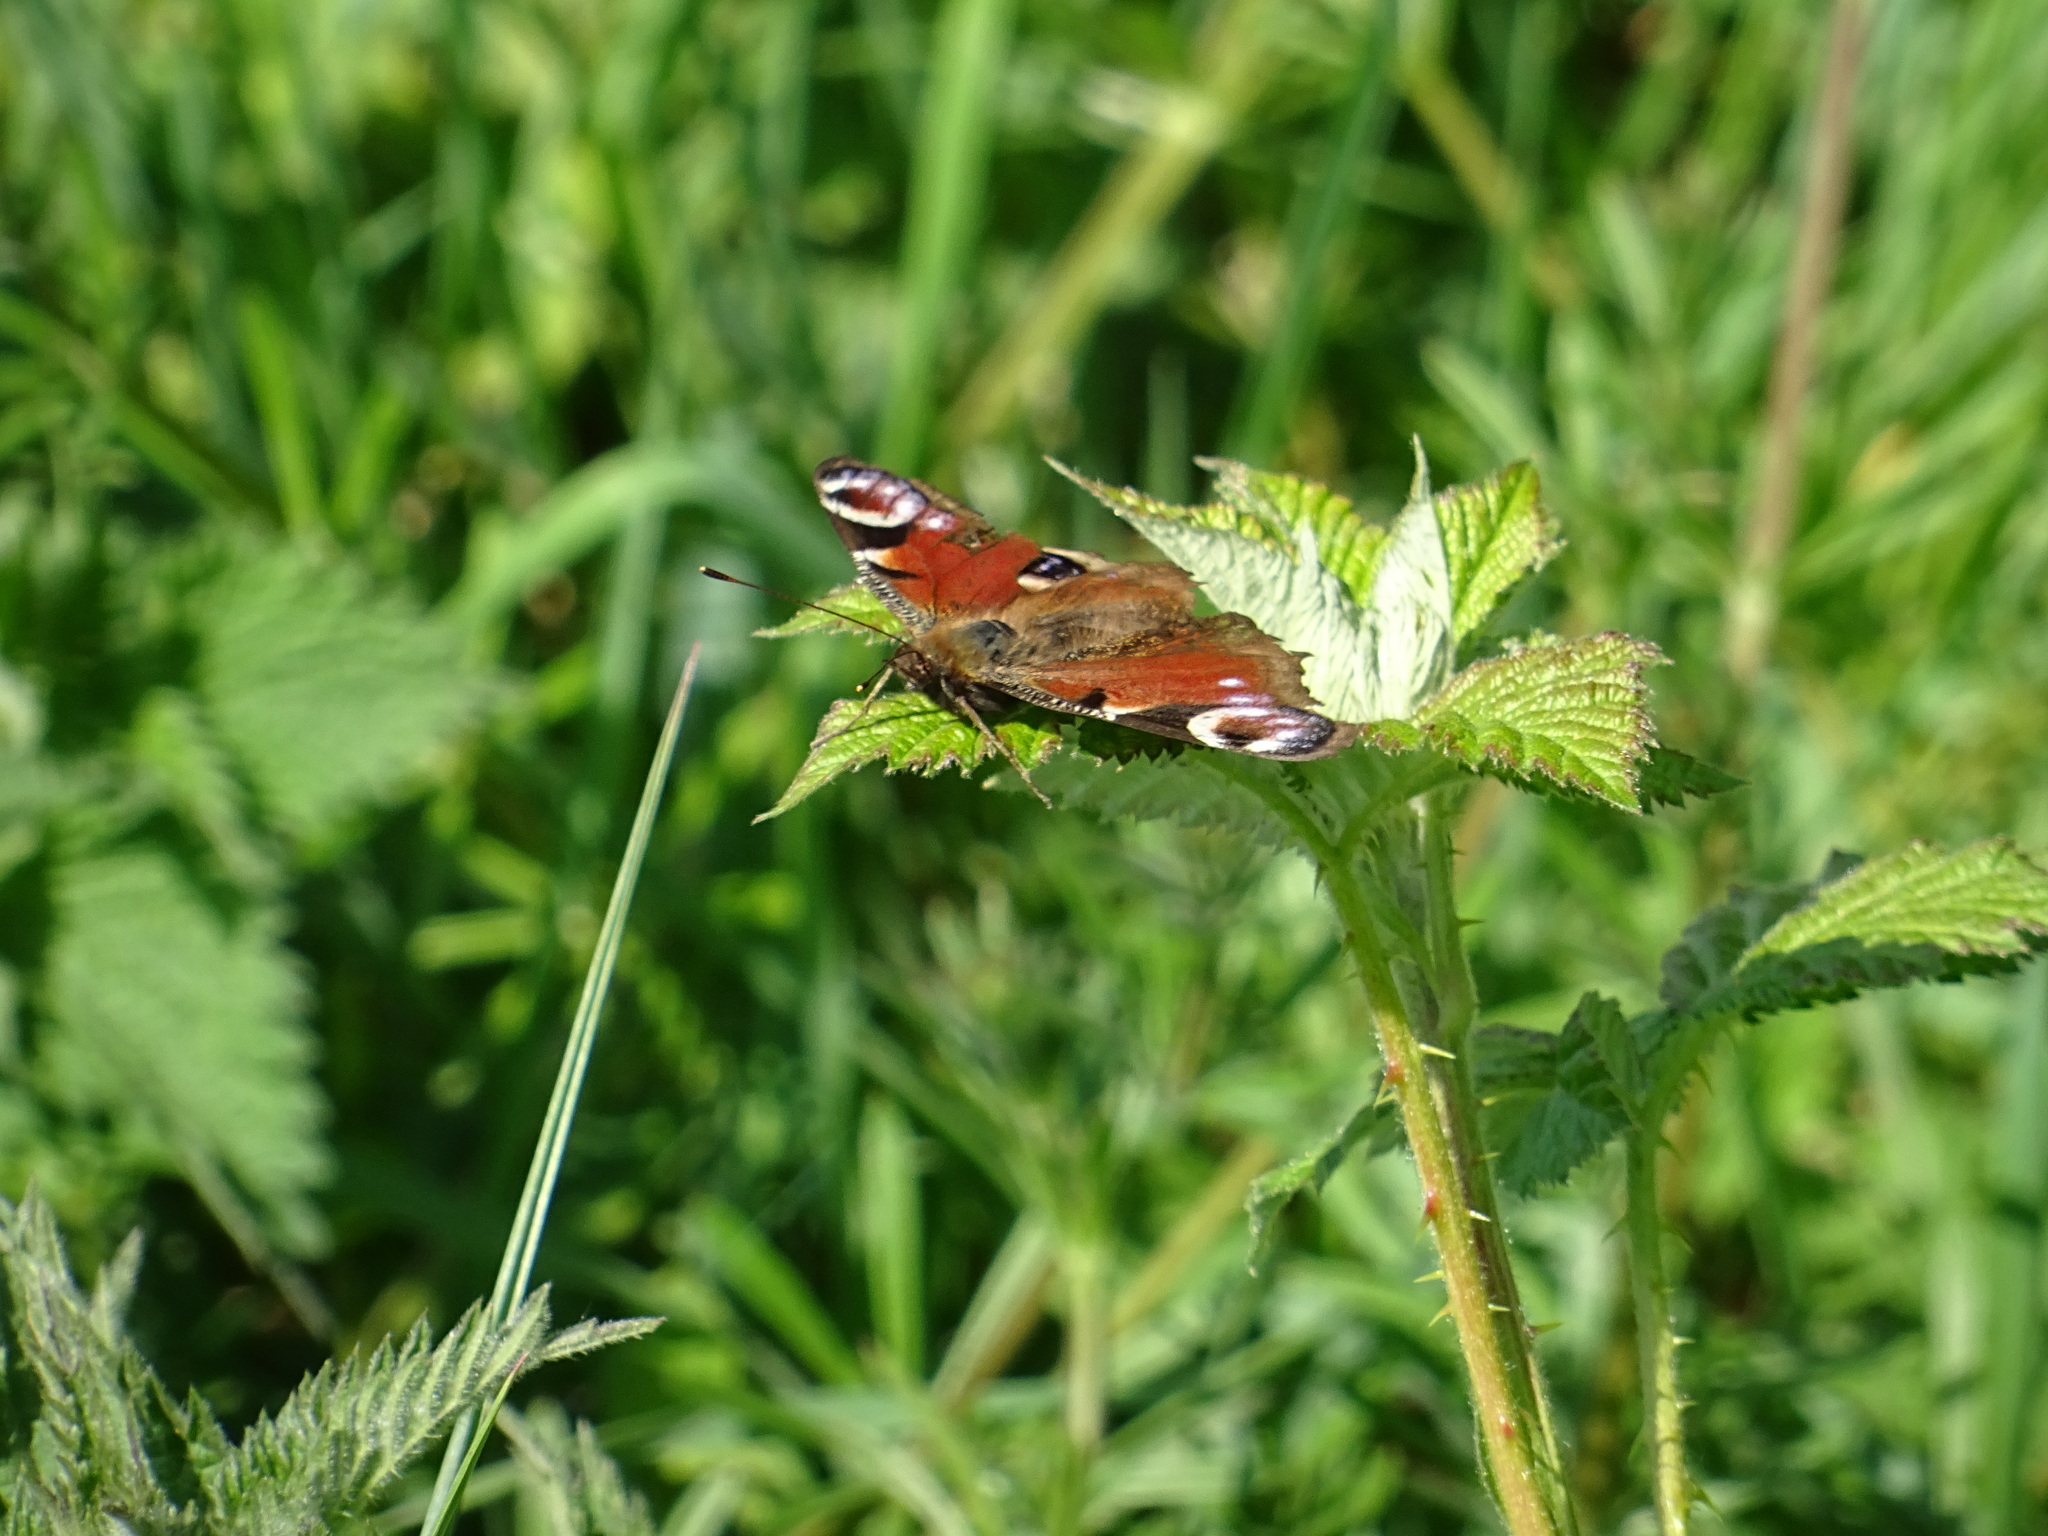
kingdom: Animalia
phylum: Arthropoda
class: Insecta
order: Lepidoptera
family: Nymphalidae
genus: Aglais
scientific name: Aglais io
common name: Peacock
